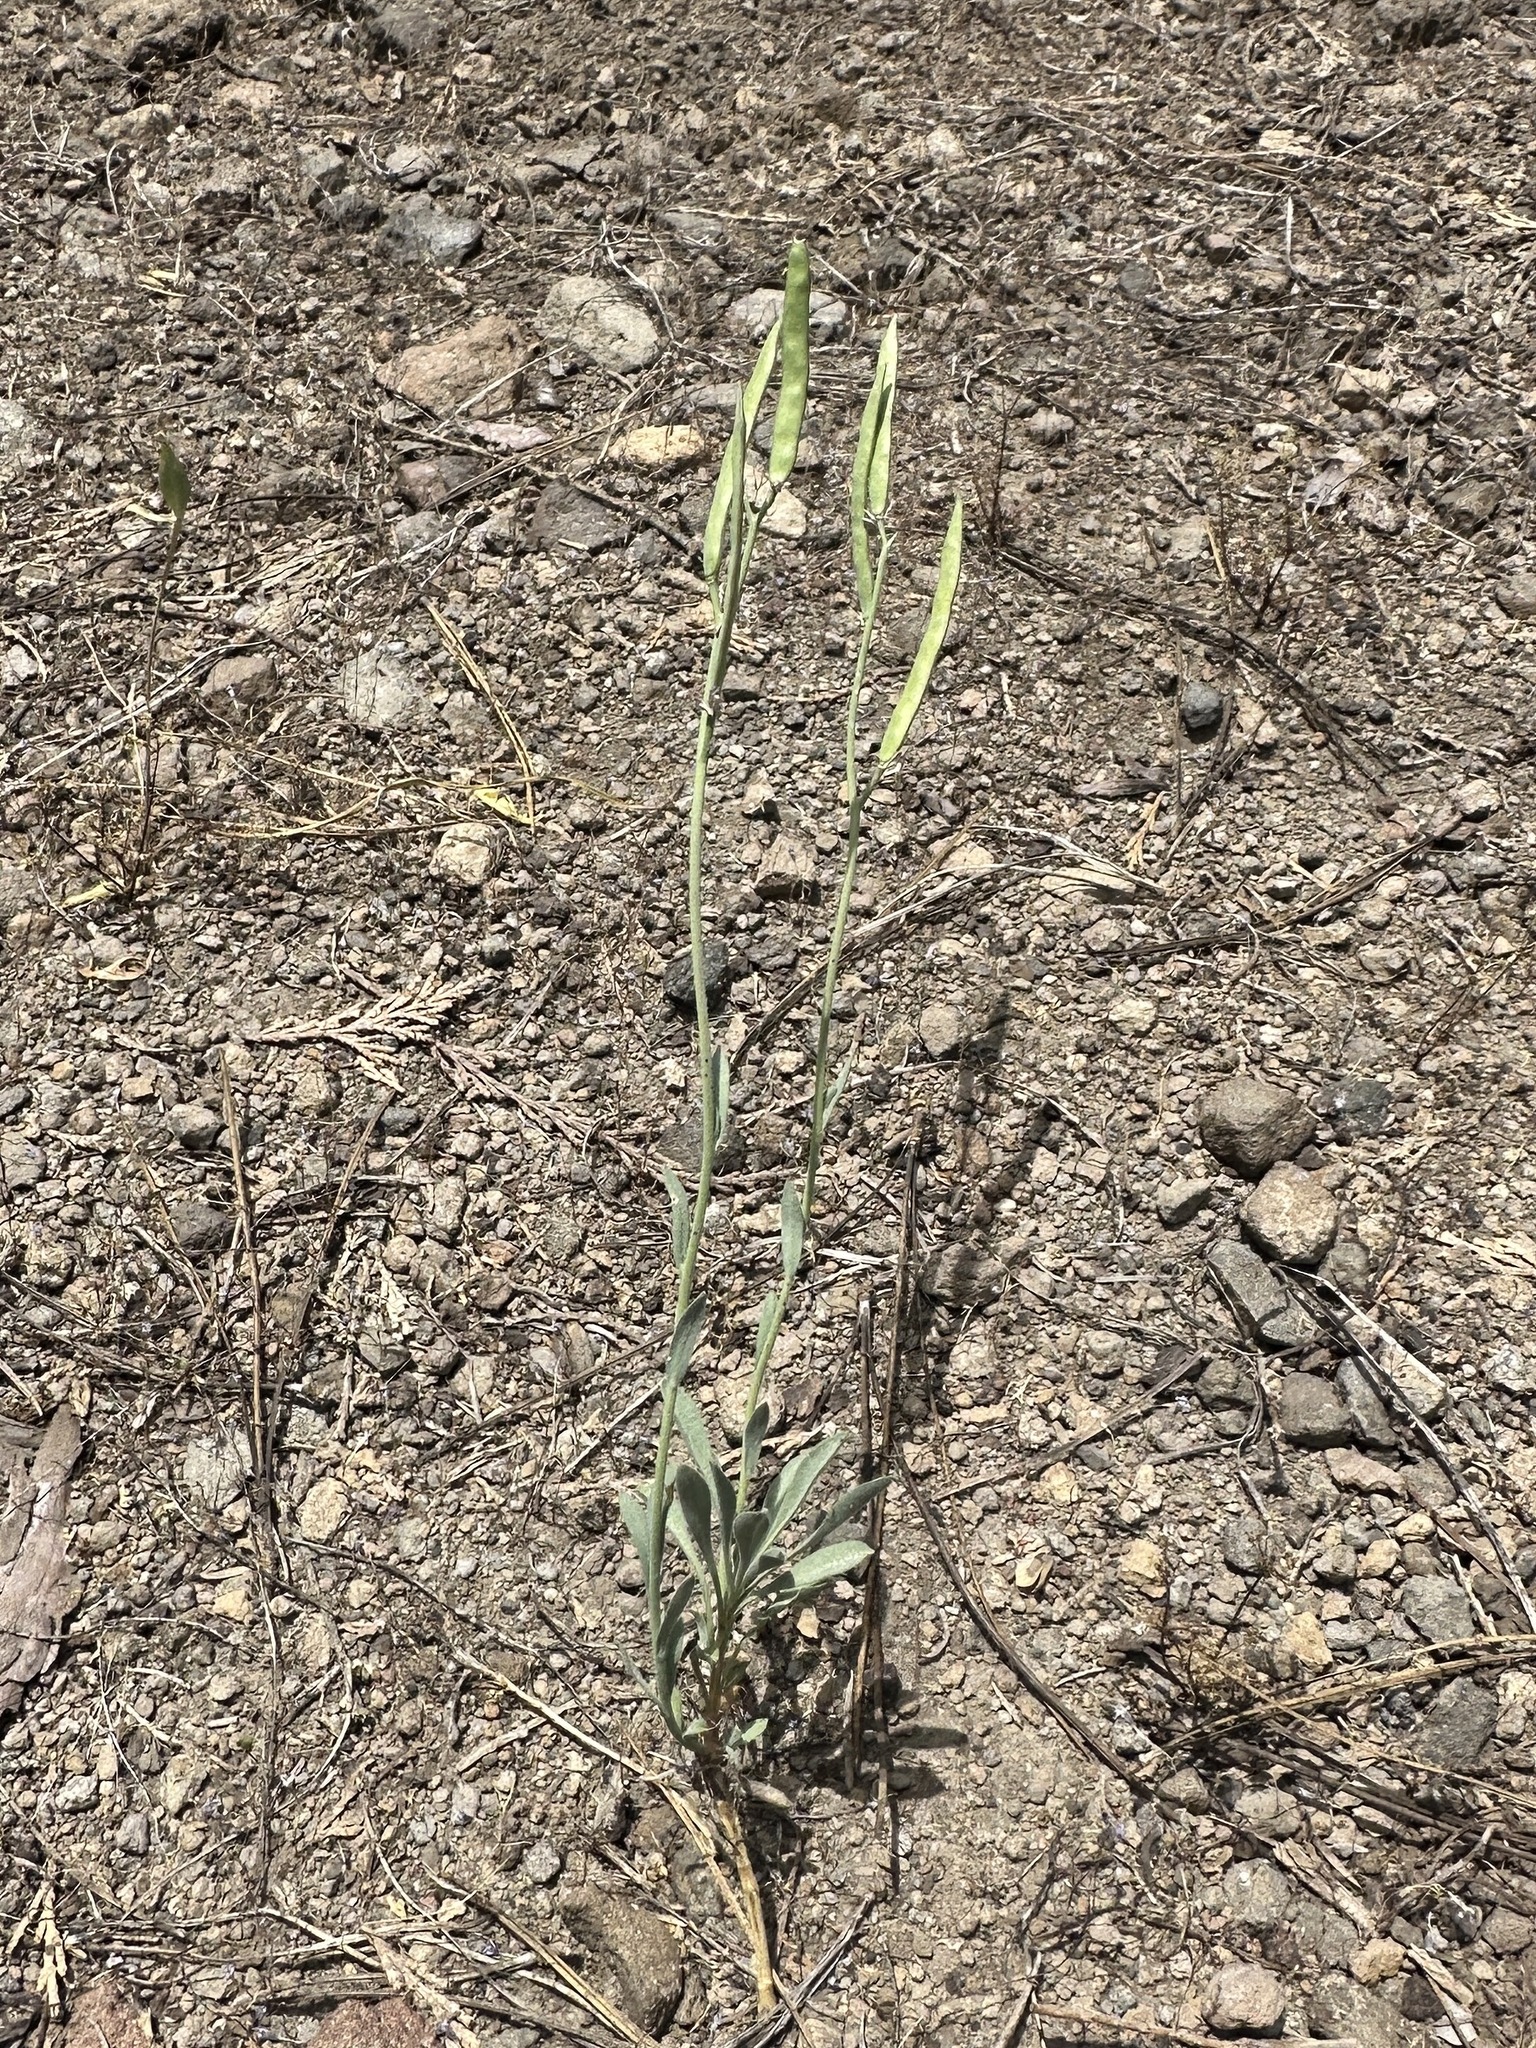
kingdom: Plantae
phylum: Tracheophyta
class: Magnoliopsida
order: Brassicales
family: Brassicaceae
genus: Boechera
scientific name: Boechera platysperma
